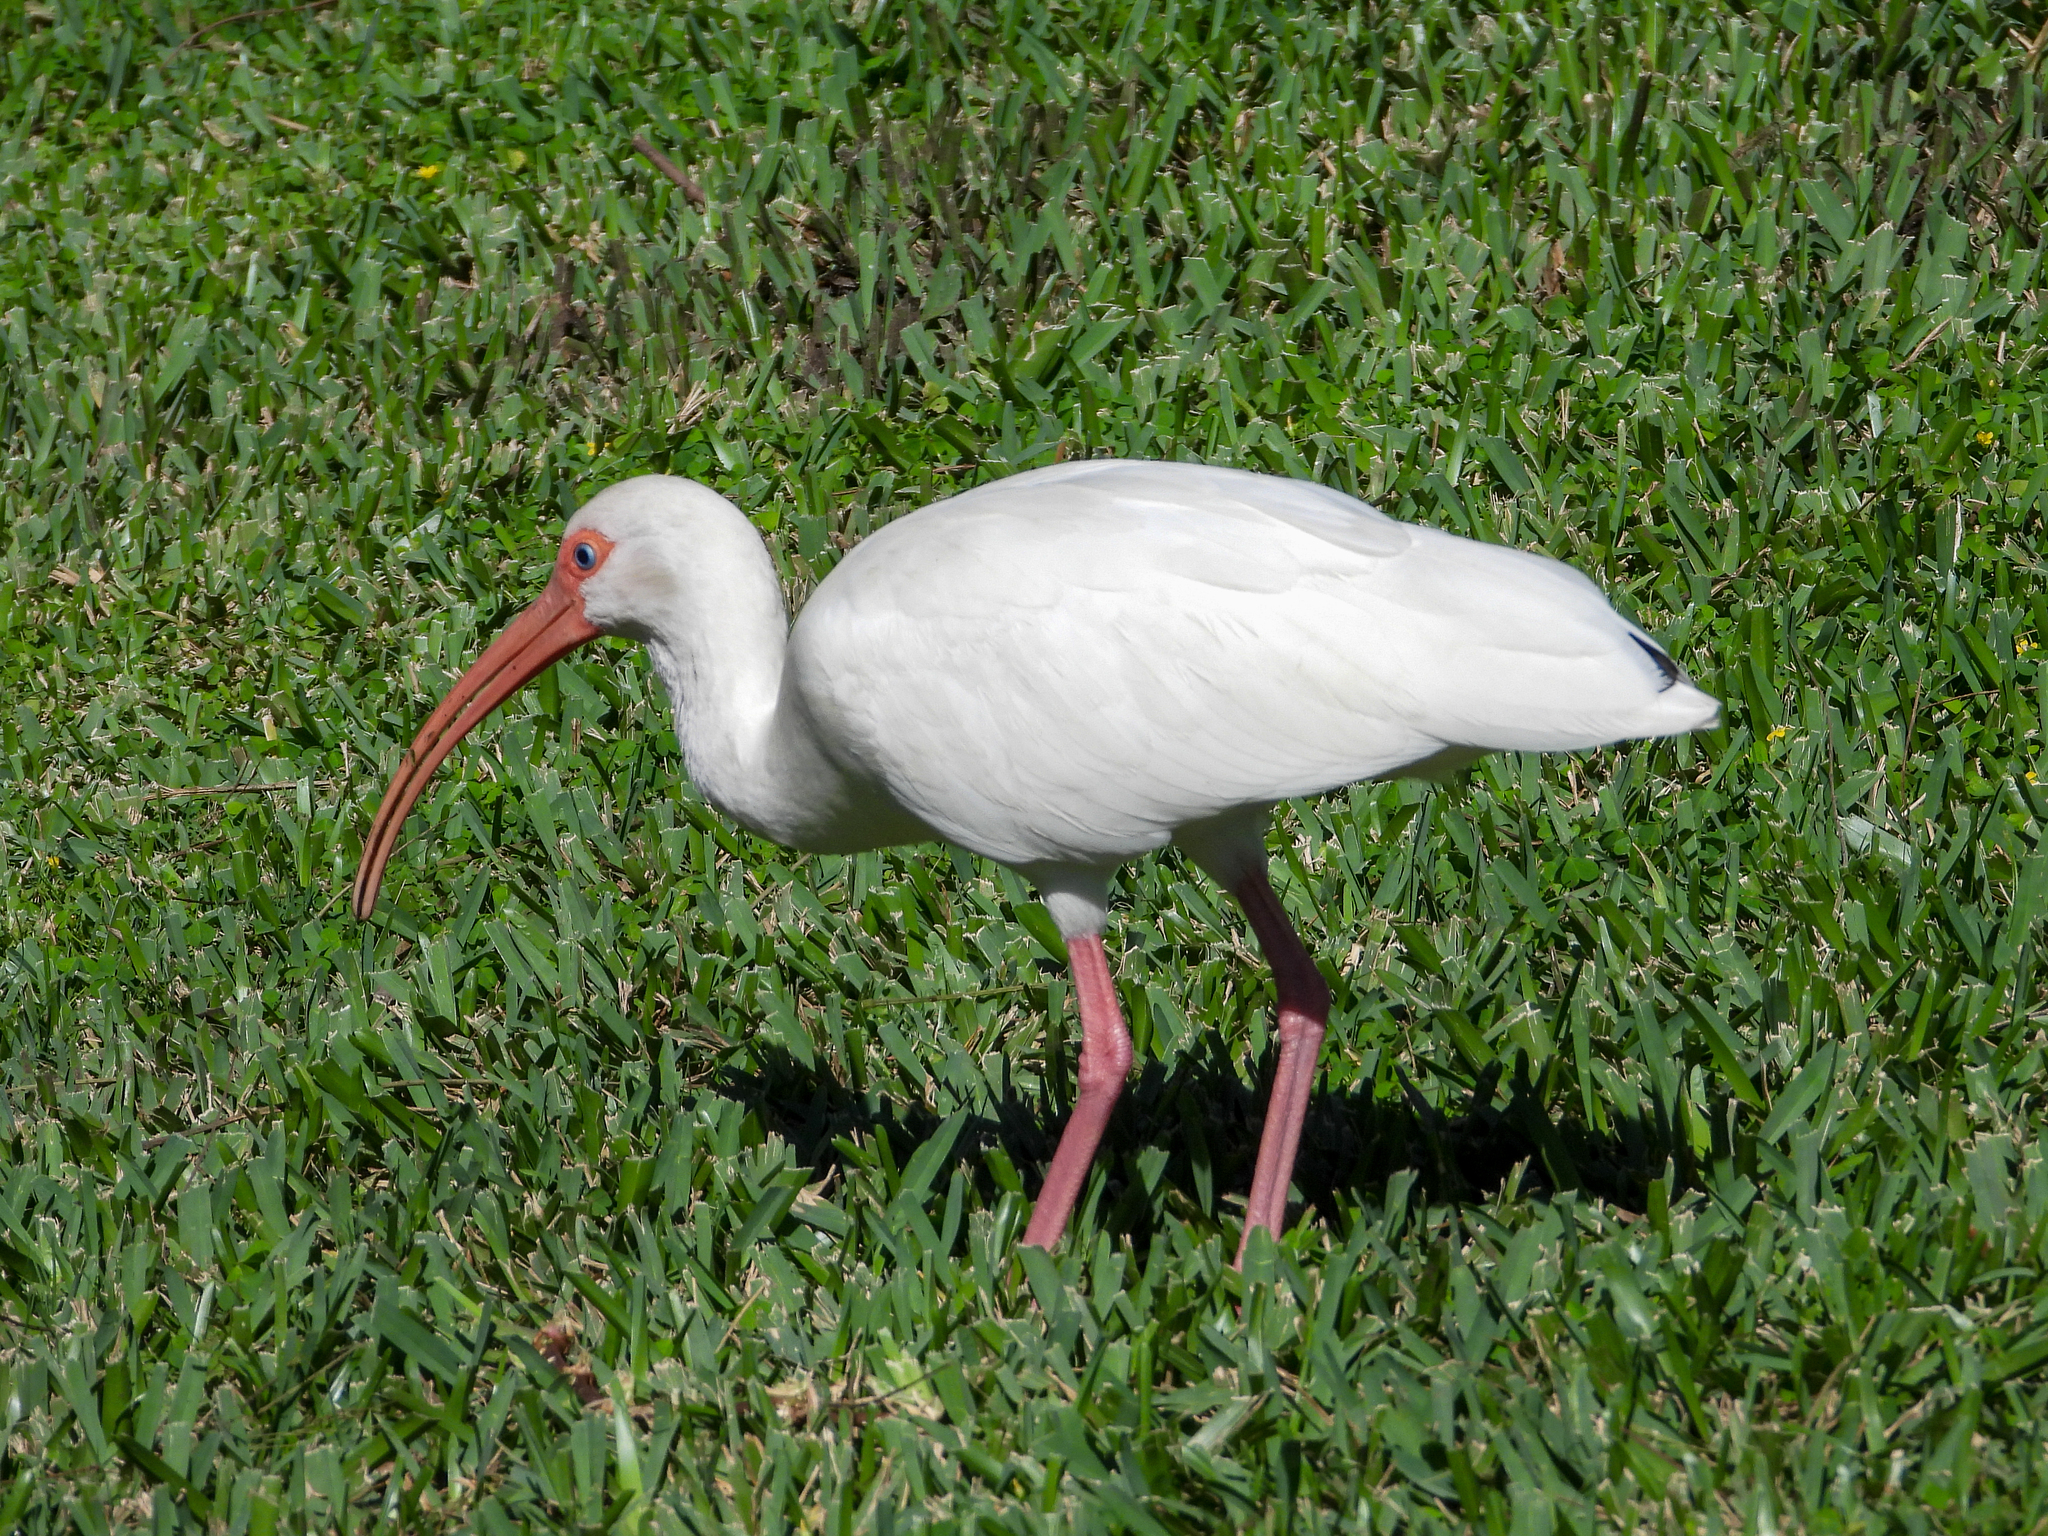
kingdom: Animalia
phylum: Chordata
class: Aves
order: Pelecaniformes
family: Threskiornithidae
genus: Eudocimus
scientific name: Eudocimus albus
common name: White ibis
